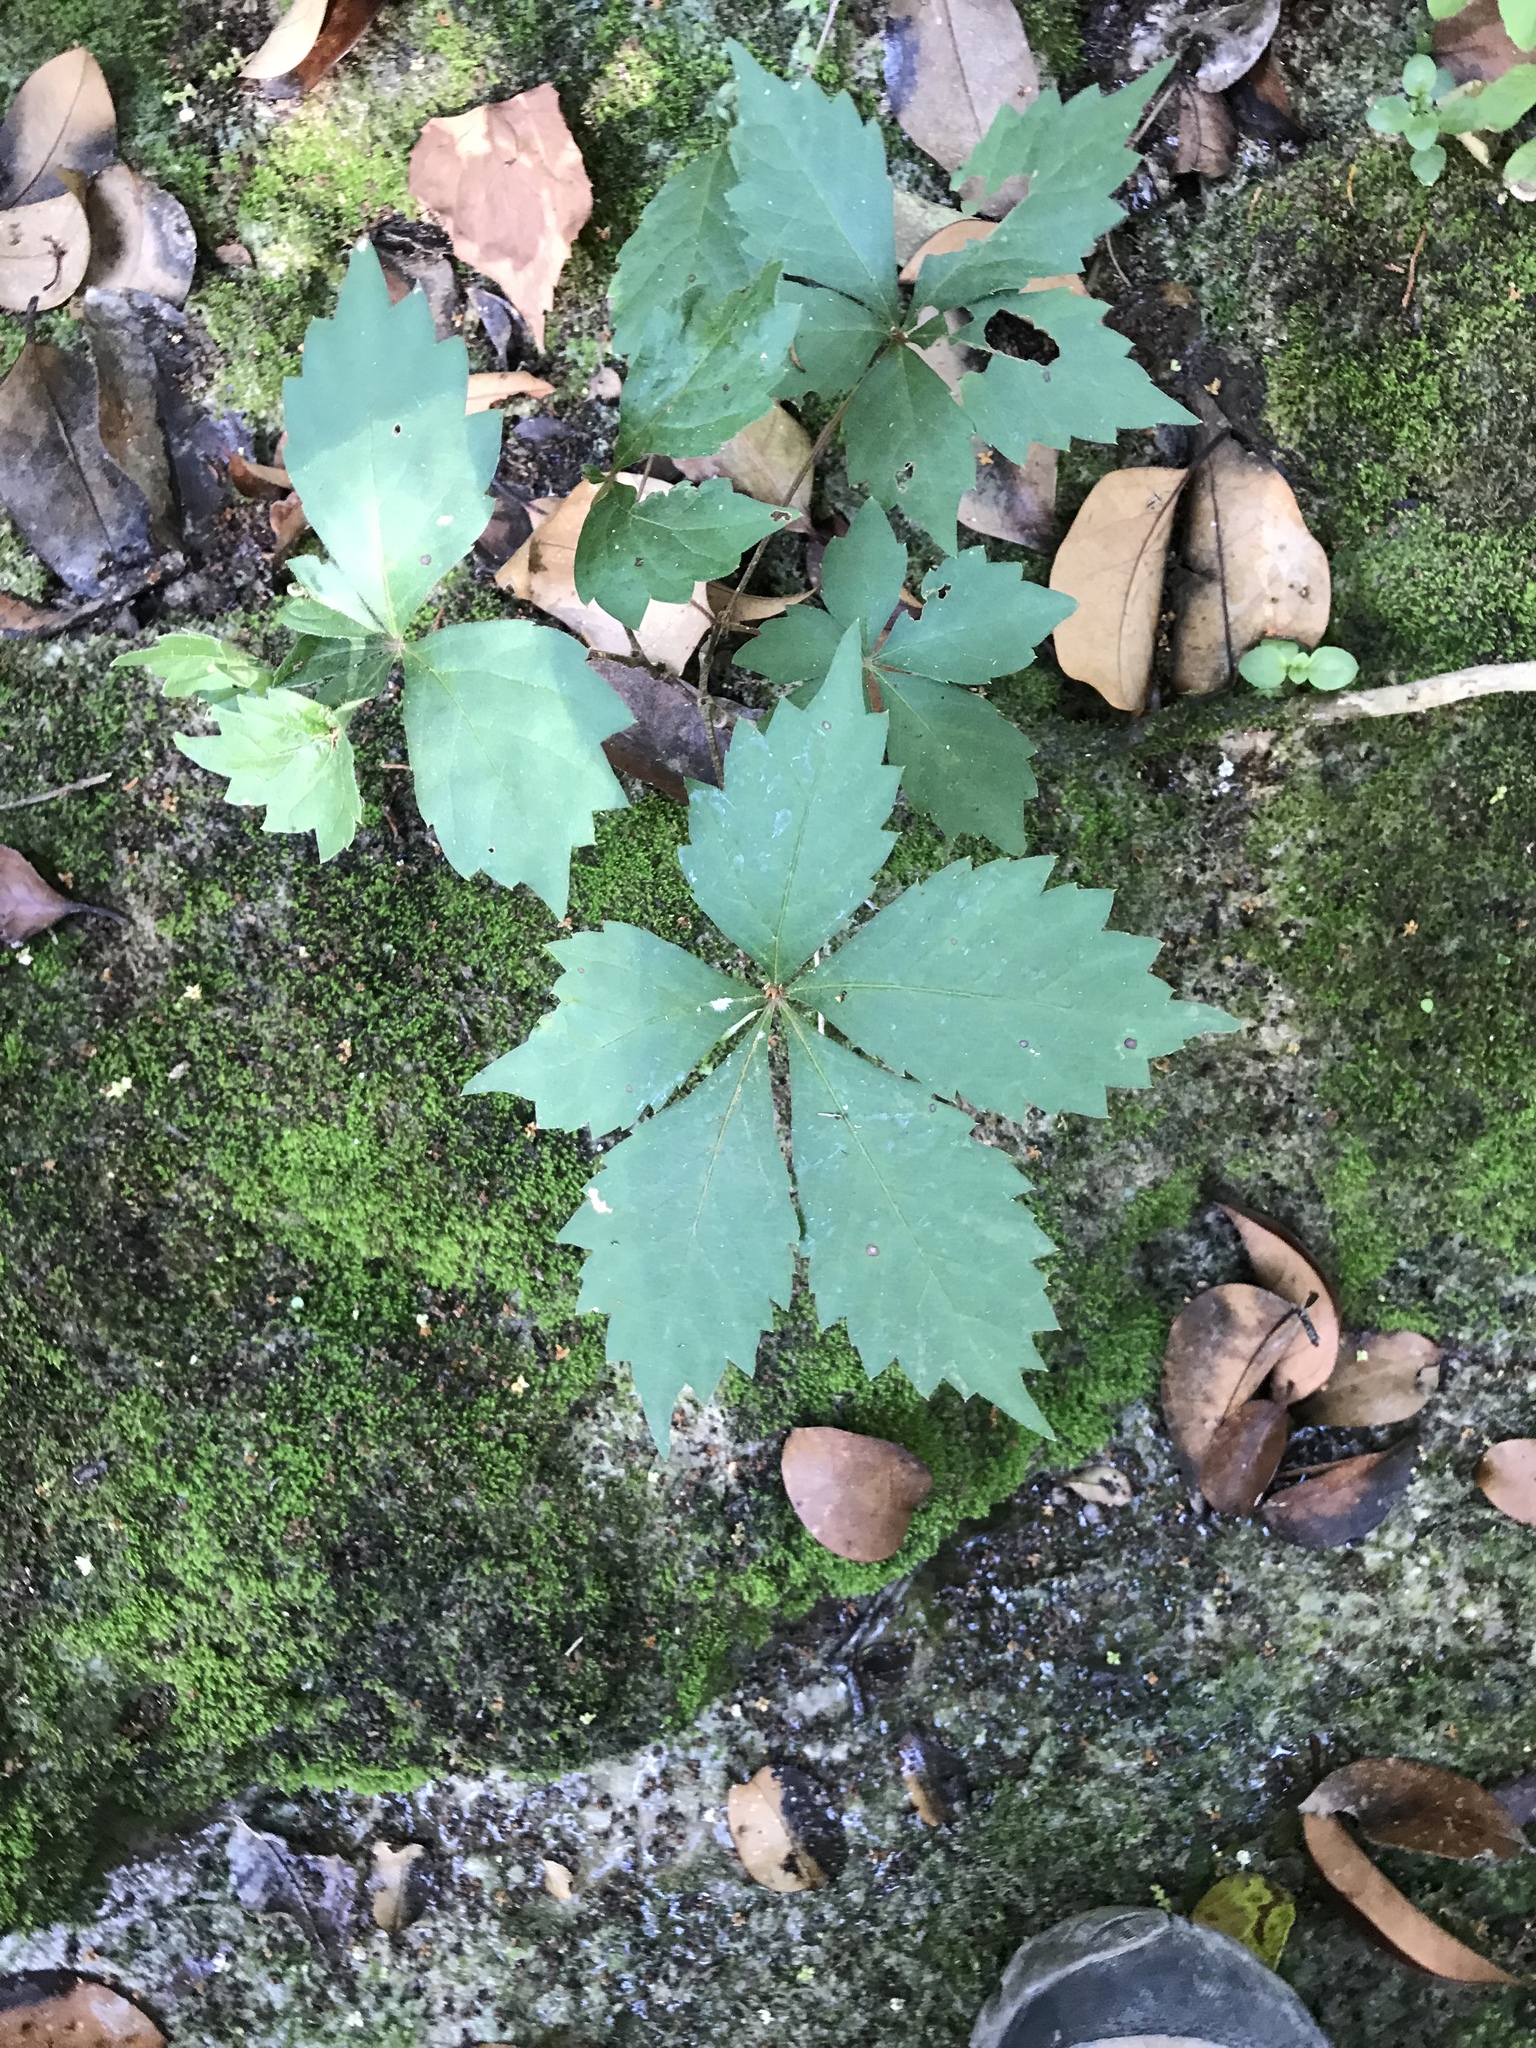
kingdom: Plantae
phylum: Tracheophyta
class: Magnoliopsida
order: Vitales
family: Vitaceae
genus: Parthenocissus
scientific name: Parthenocissus quinquefolia
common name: Virginia-creeper
